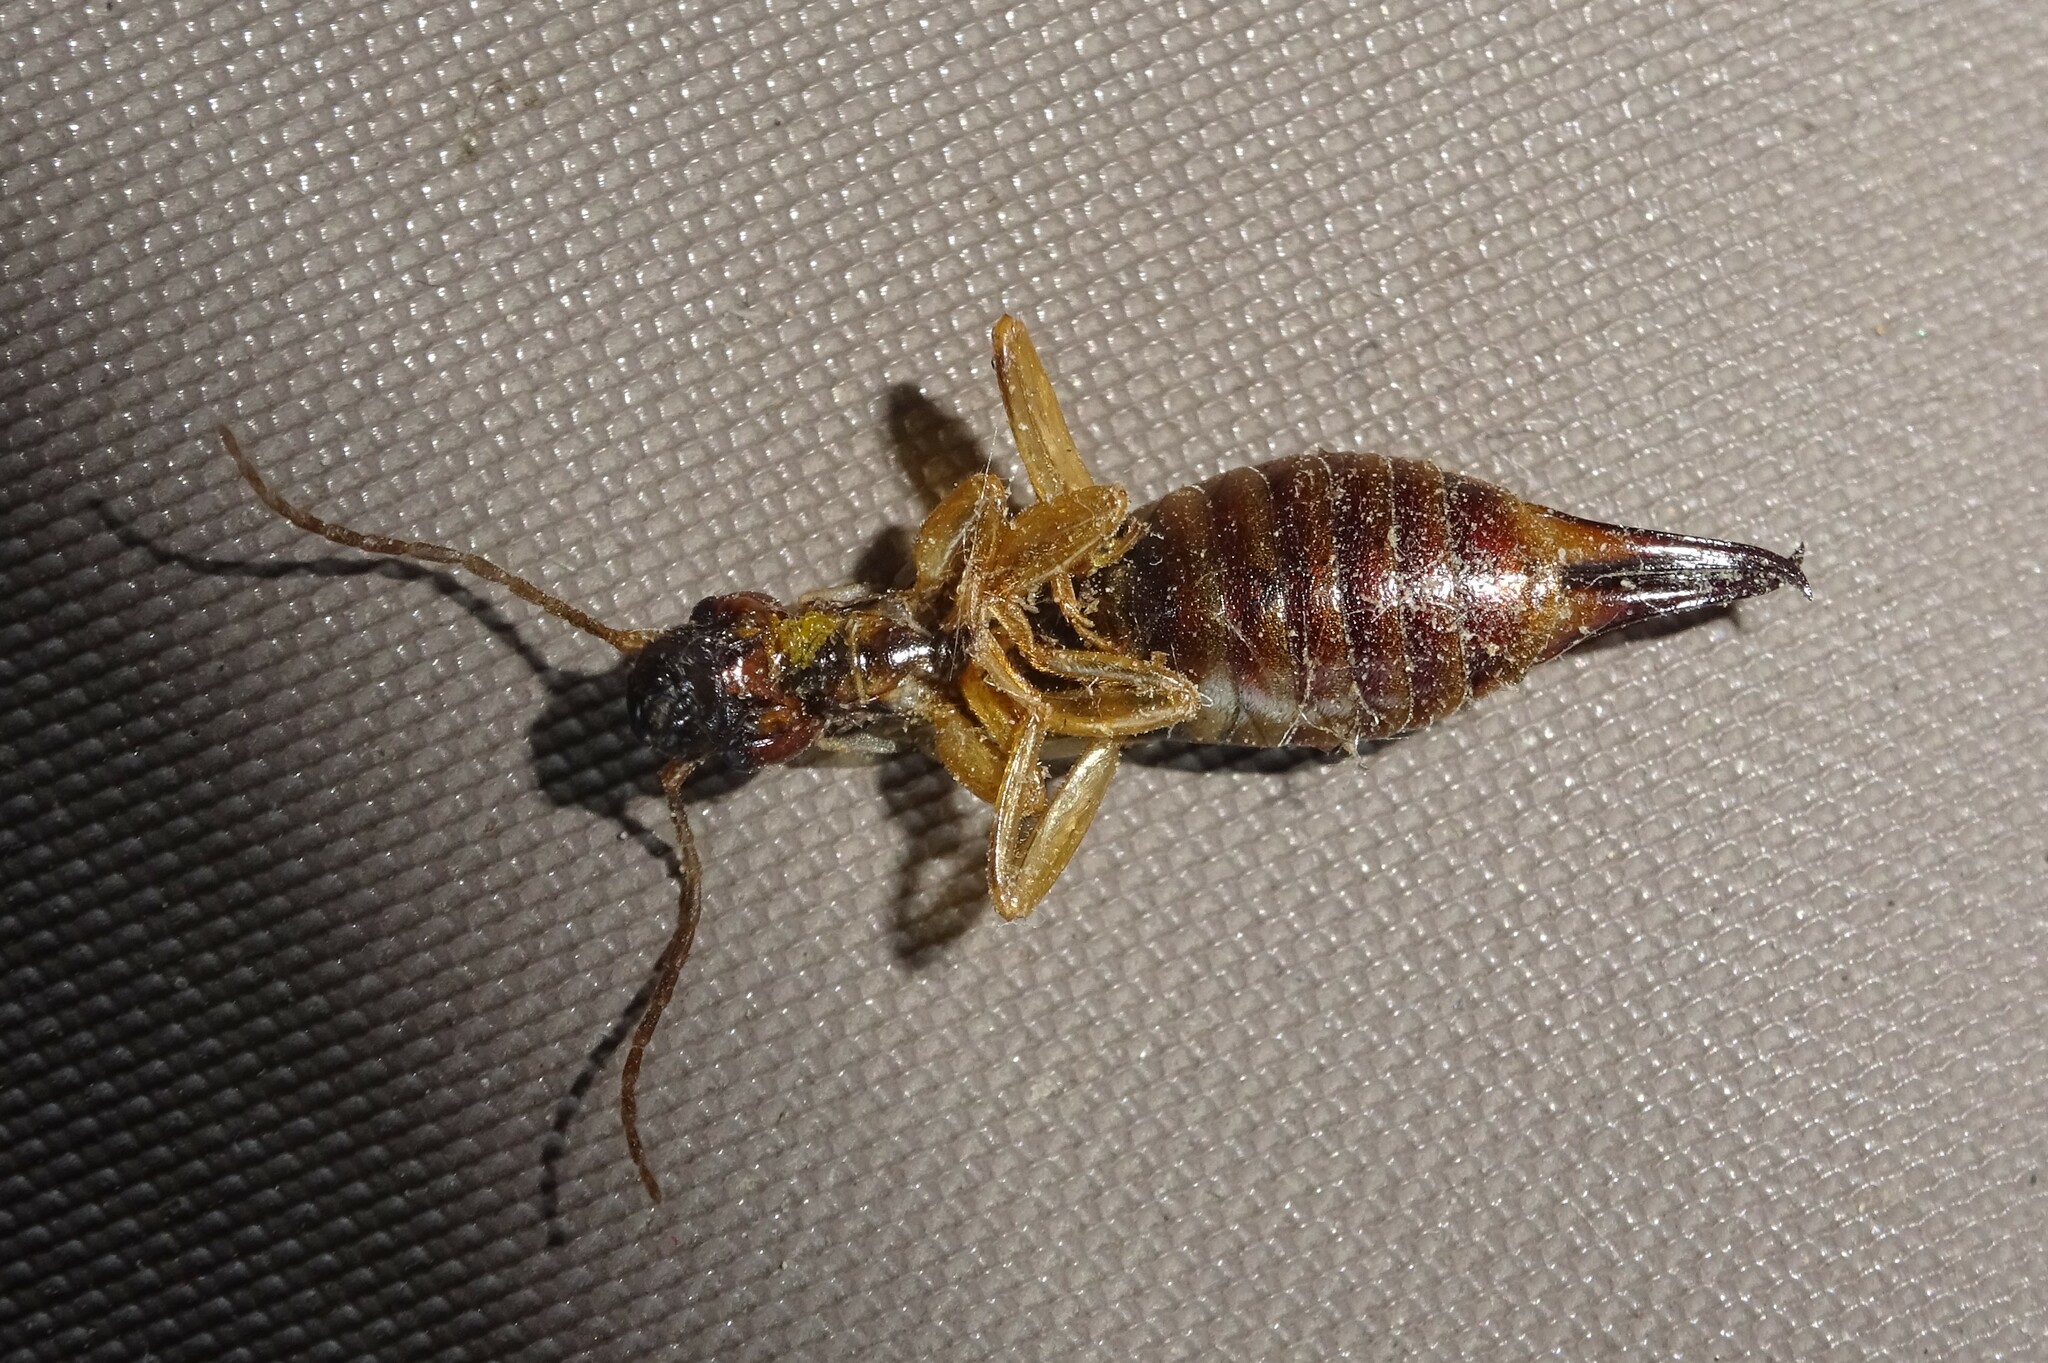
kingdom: Animalia
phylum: Arthropoda
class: Insecta
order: Dermaptera
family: Forficulidae
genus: Forficula
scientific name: Forficula auricularia
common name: European earwig
